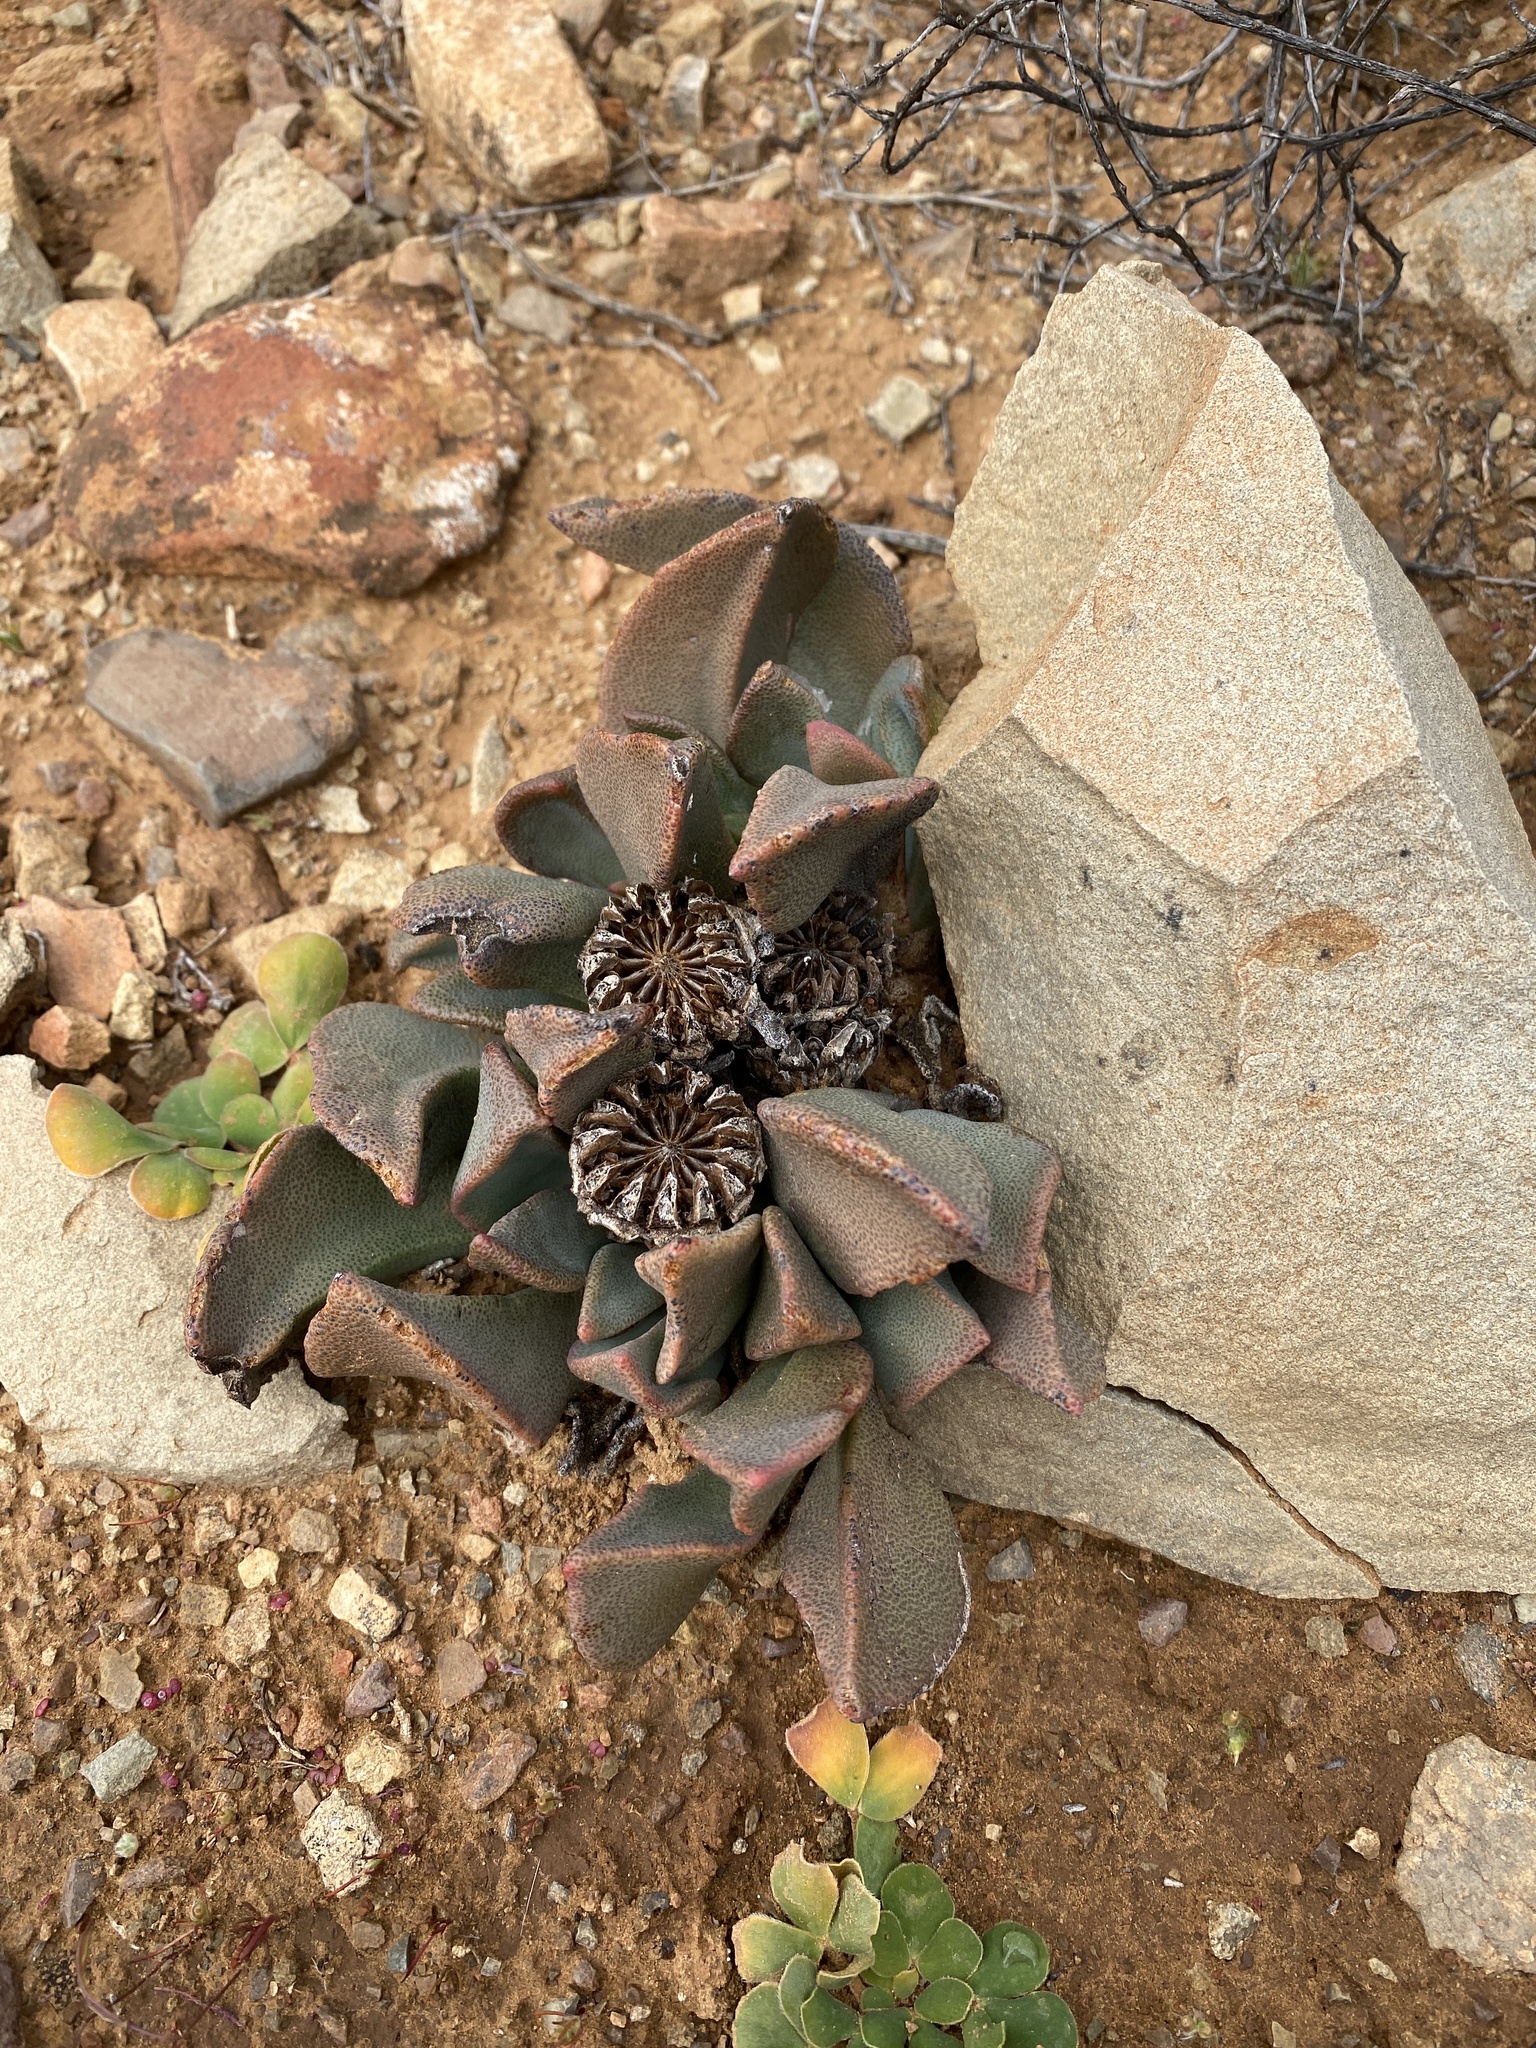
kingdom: Plantae
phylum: Tracheophyta
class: Magnoliopsida
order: Caryophyllales
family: Aizoaceae
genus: Pleiospilos
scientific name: Pleiospilos compactus
